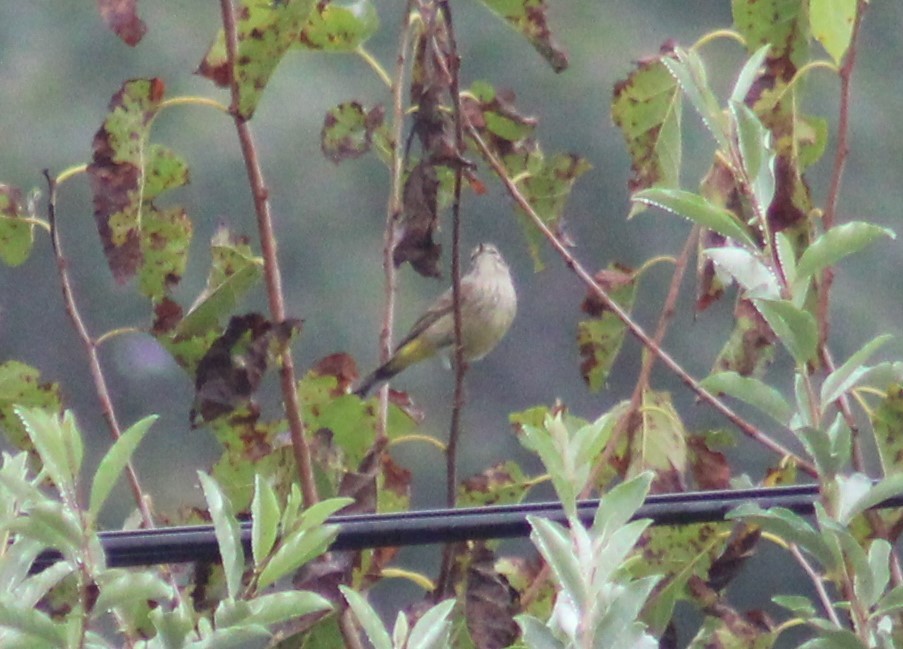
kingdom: Animalia
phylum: Chordata
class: Aves
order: Passeriformes
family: Parulidae
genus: Setophaga
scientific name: Setophaga palmarum
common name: Palm warbler
